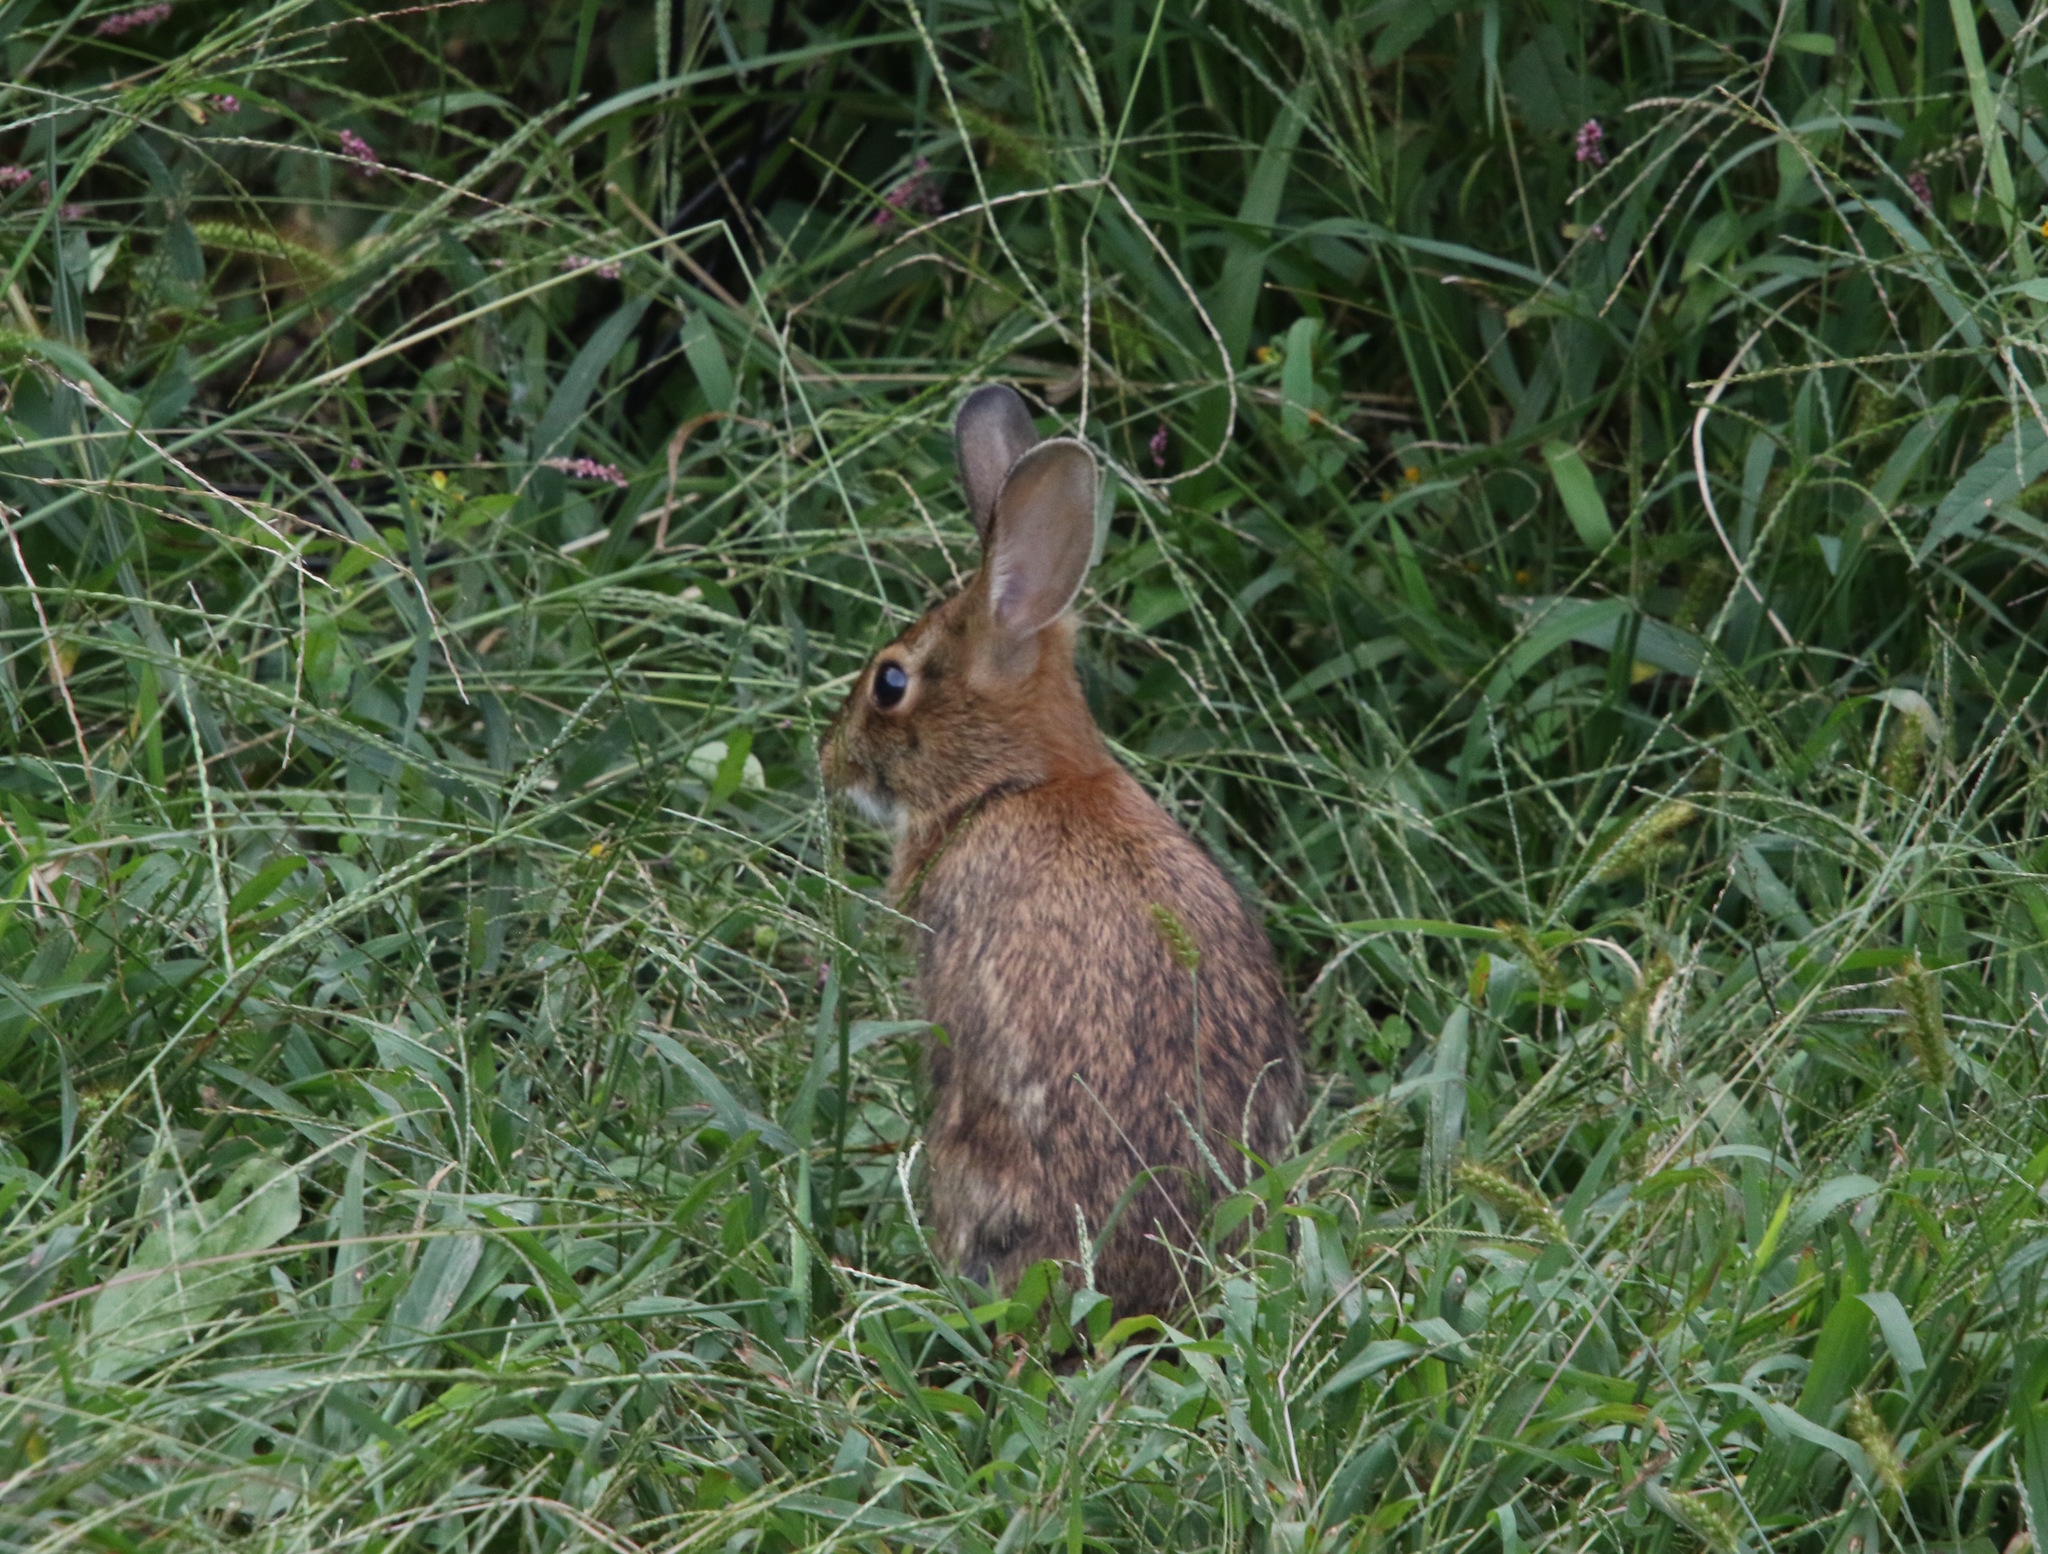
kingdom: Animalia
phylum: Chordata
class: Mammalia
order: Lagomorpha
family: Leporidae
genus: Sylvilagus
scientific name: Sylvilagus floridanus
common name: Eastern cottontail
